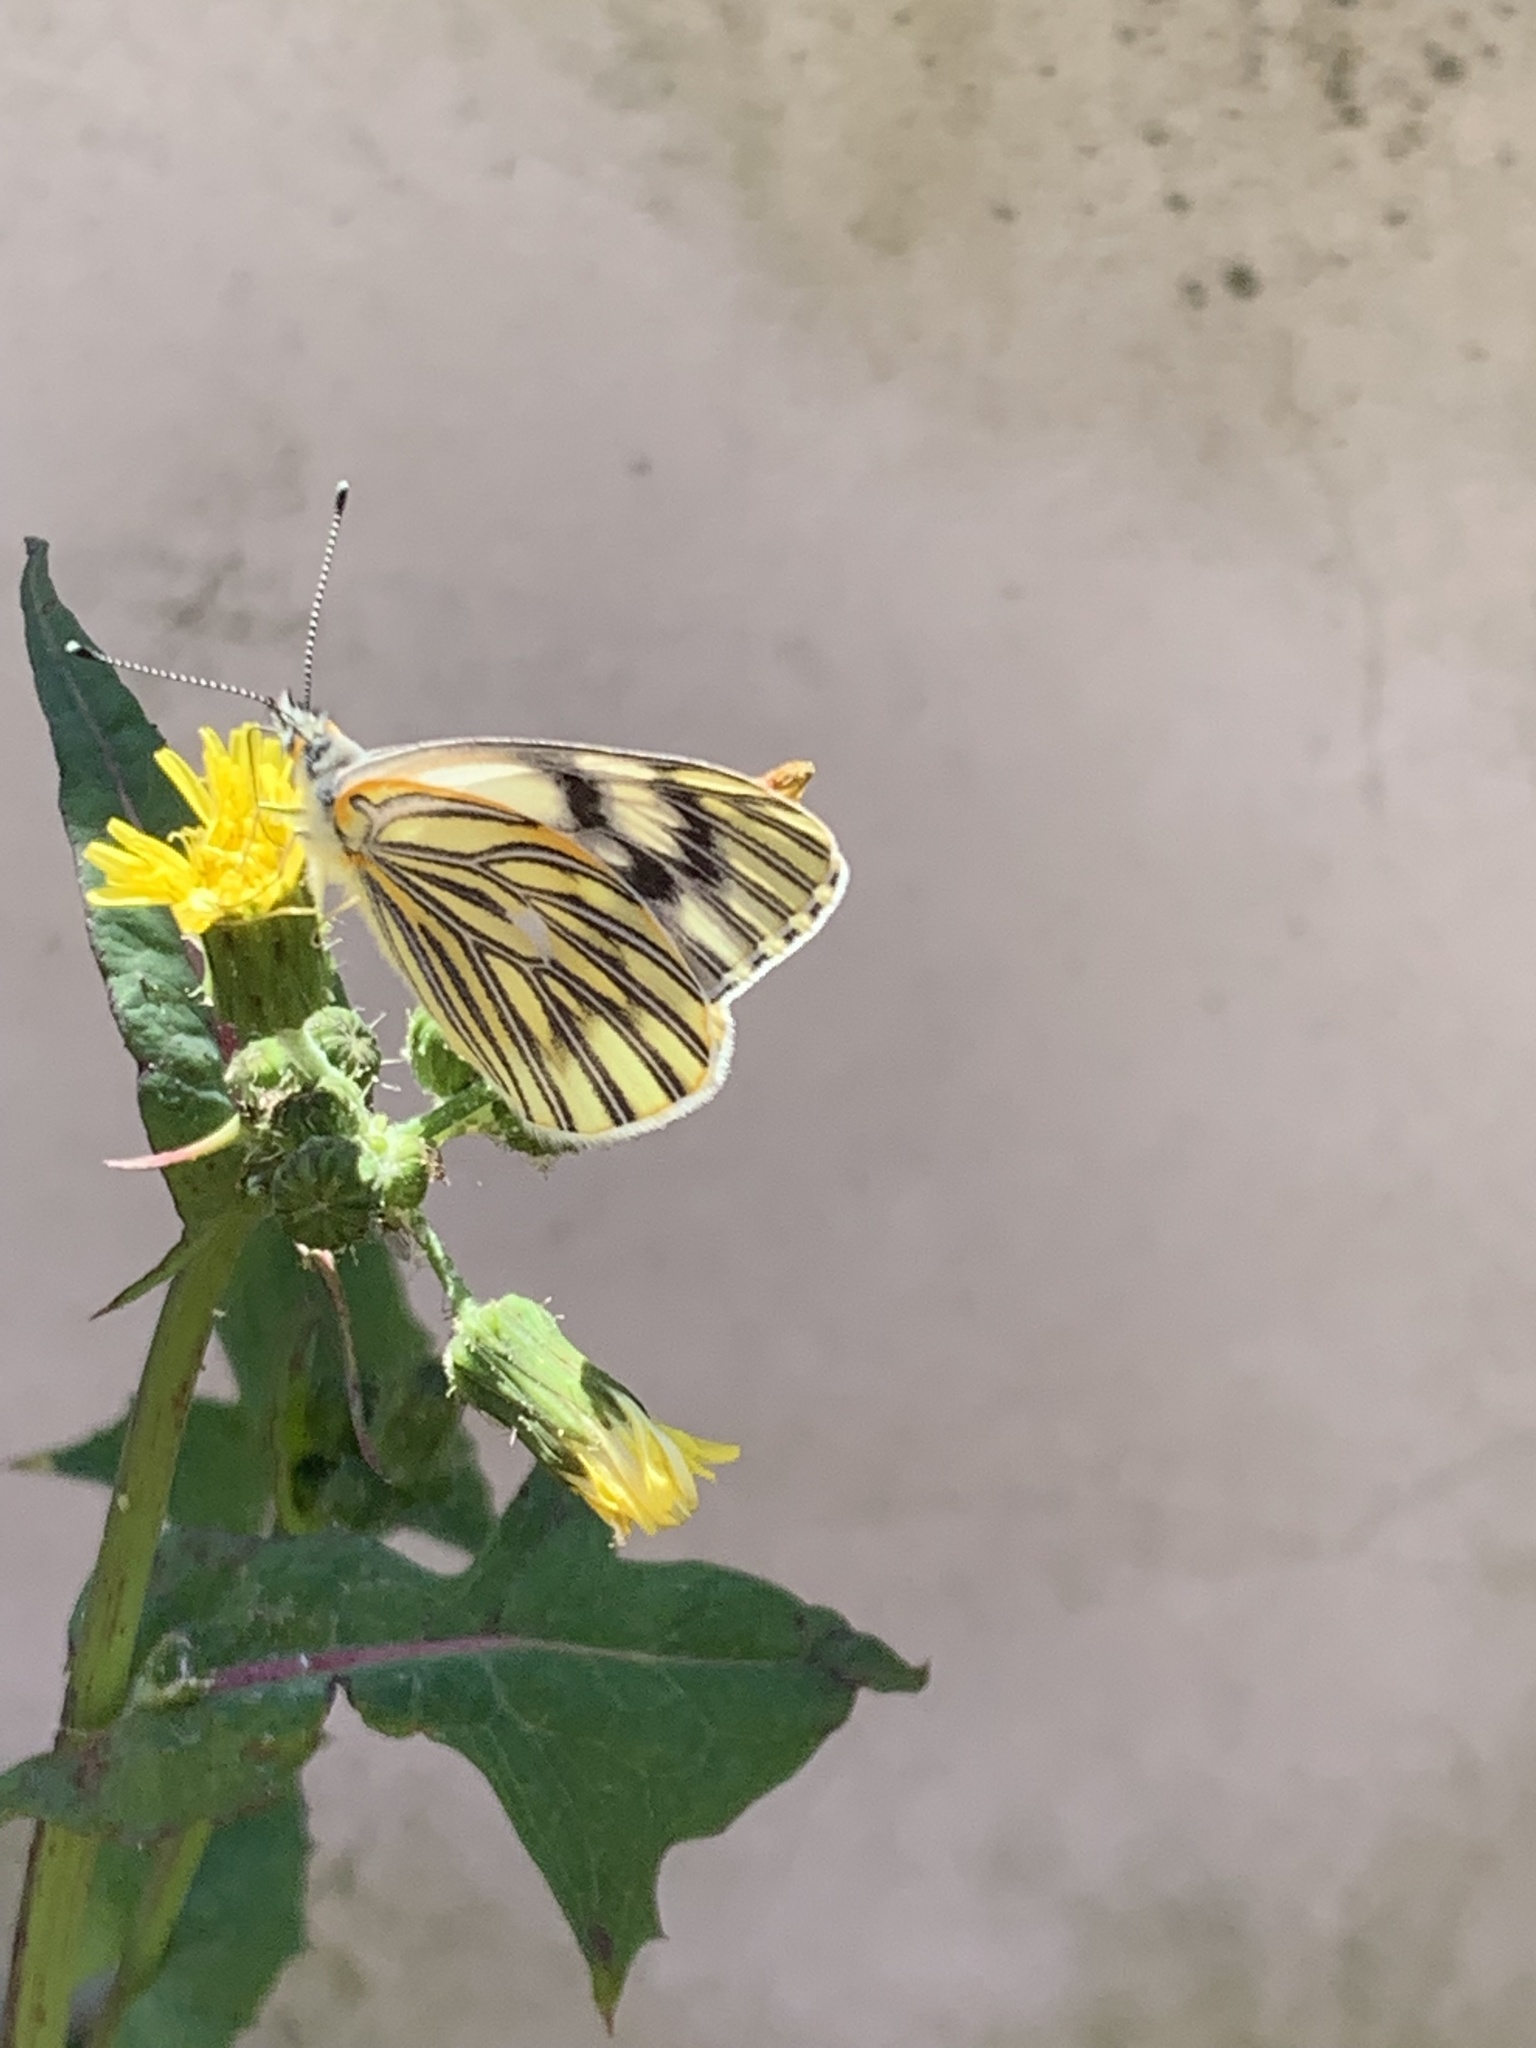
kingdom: Animalia
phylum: Arthropoda
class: Insecta
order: Lepidoptera
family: Pieridae
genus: Tatochila
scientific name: Tatochila mercedis
